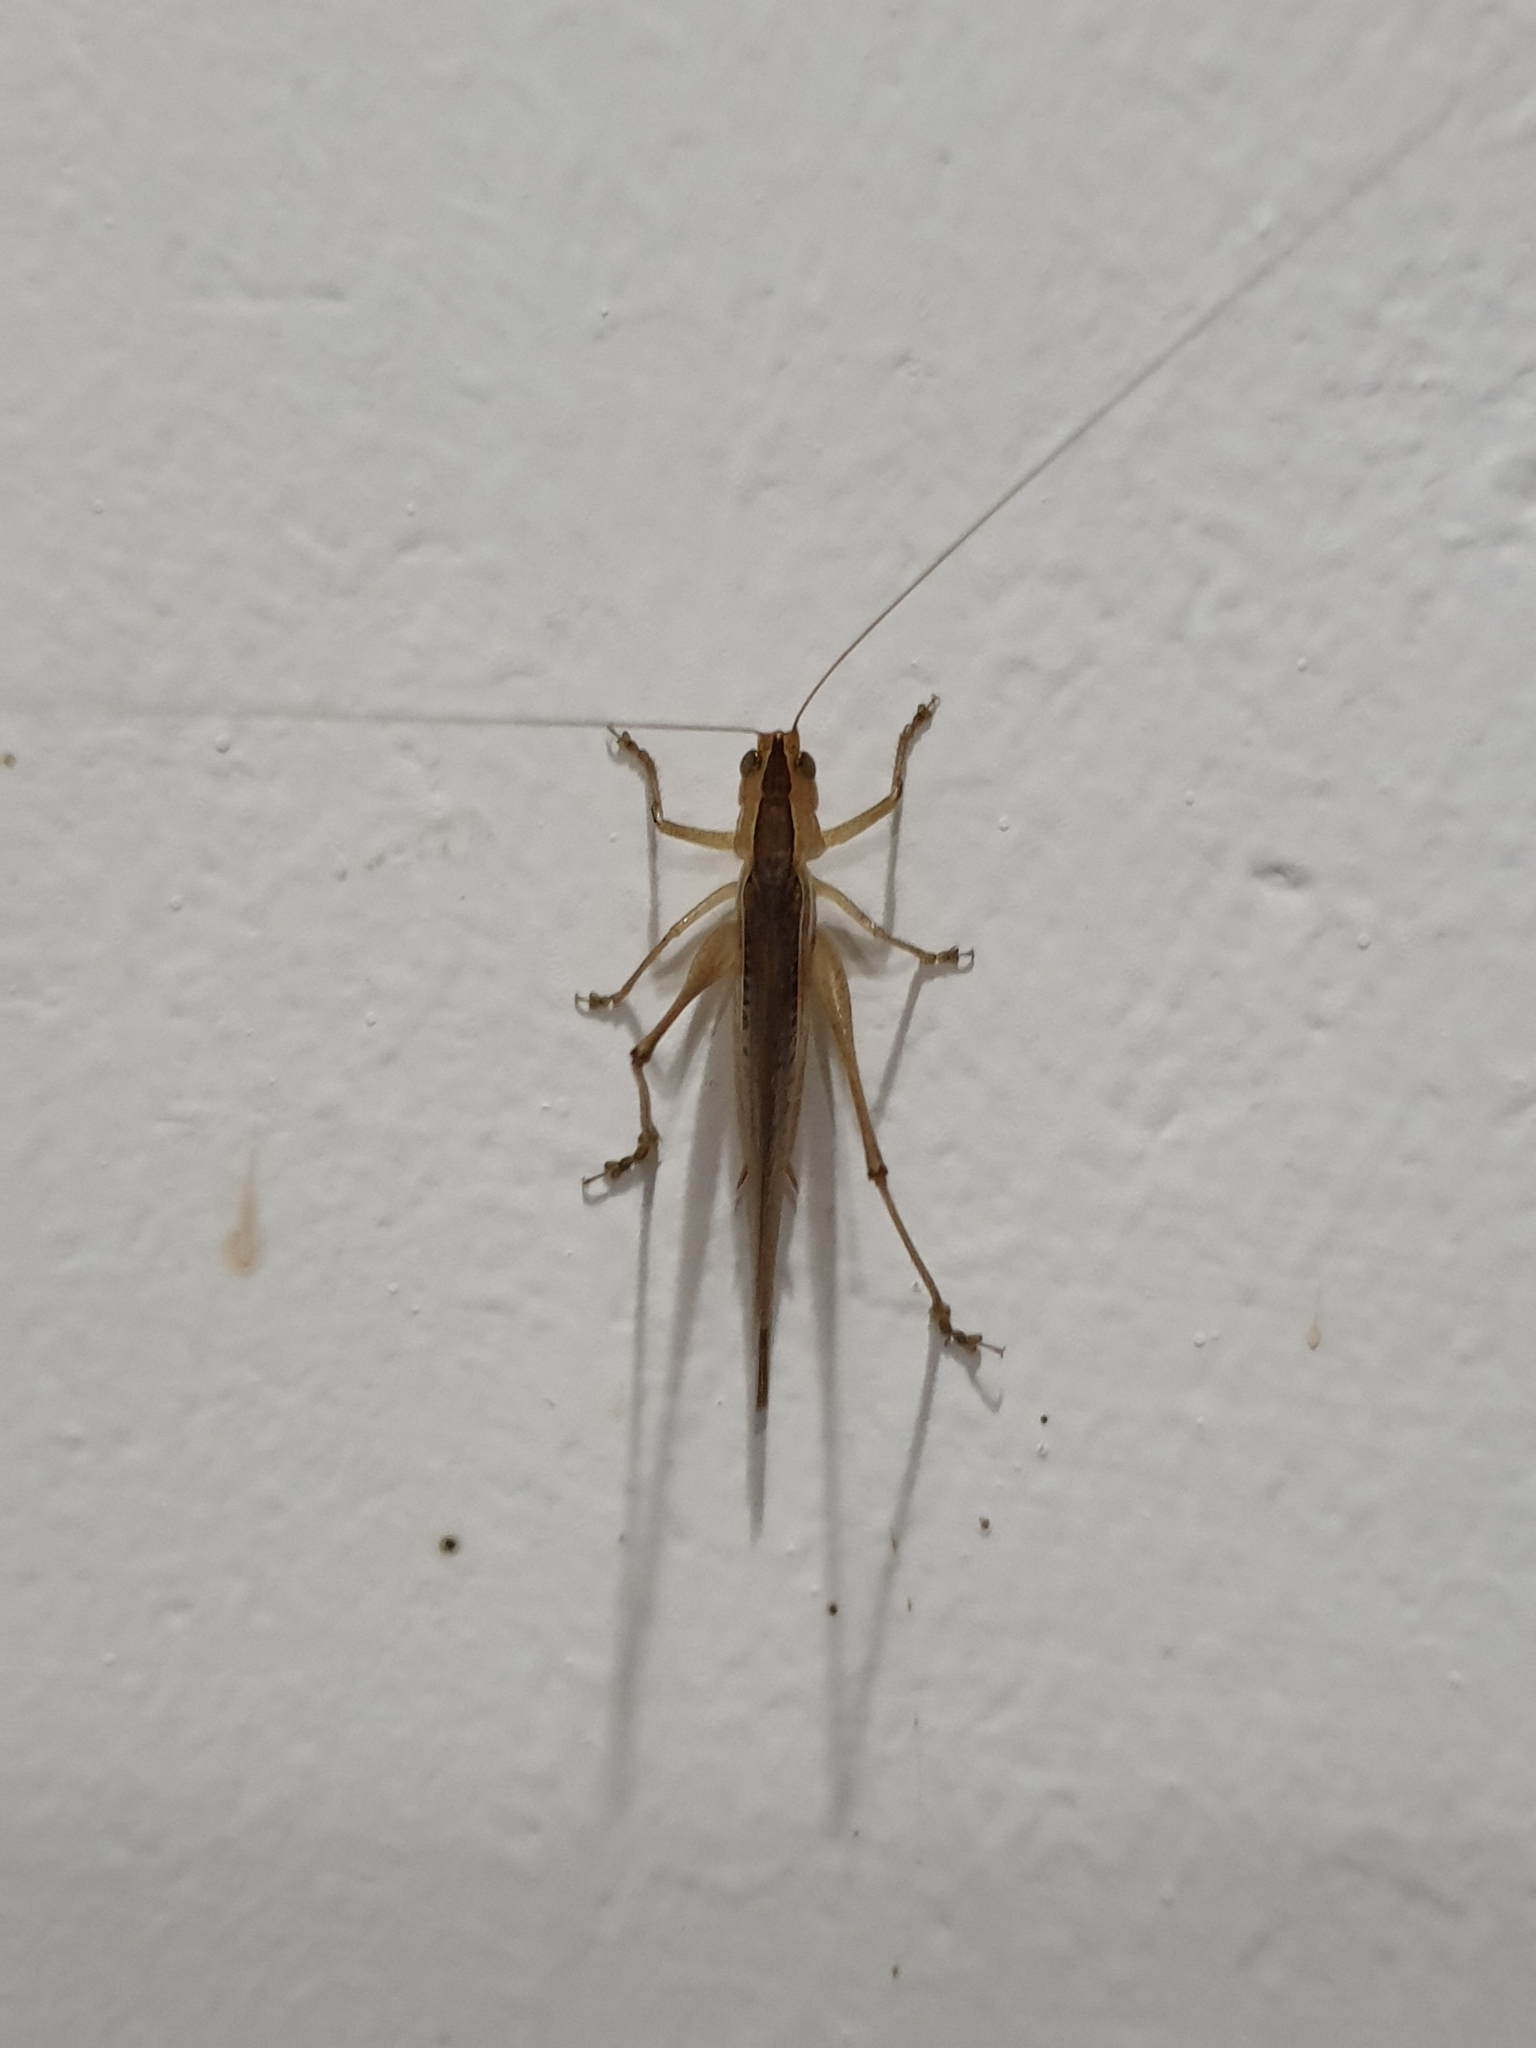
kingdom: Animalia
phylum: Arthropoda
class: Insecta
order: Orthoptera
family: Tettigoniidae
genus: Conocephalus
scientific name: Conocephalus maculatus
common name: Spotted meadow katydid
